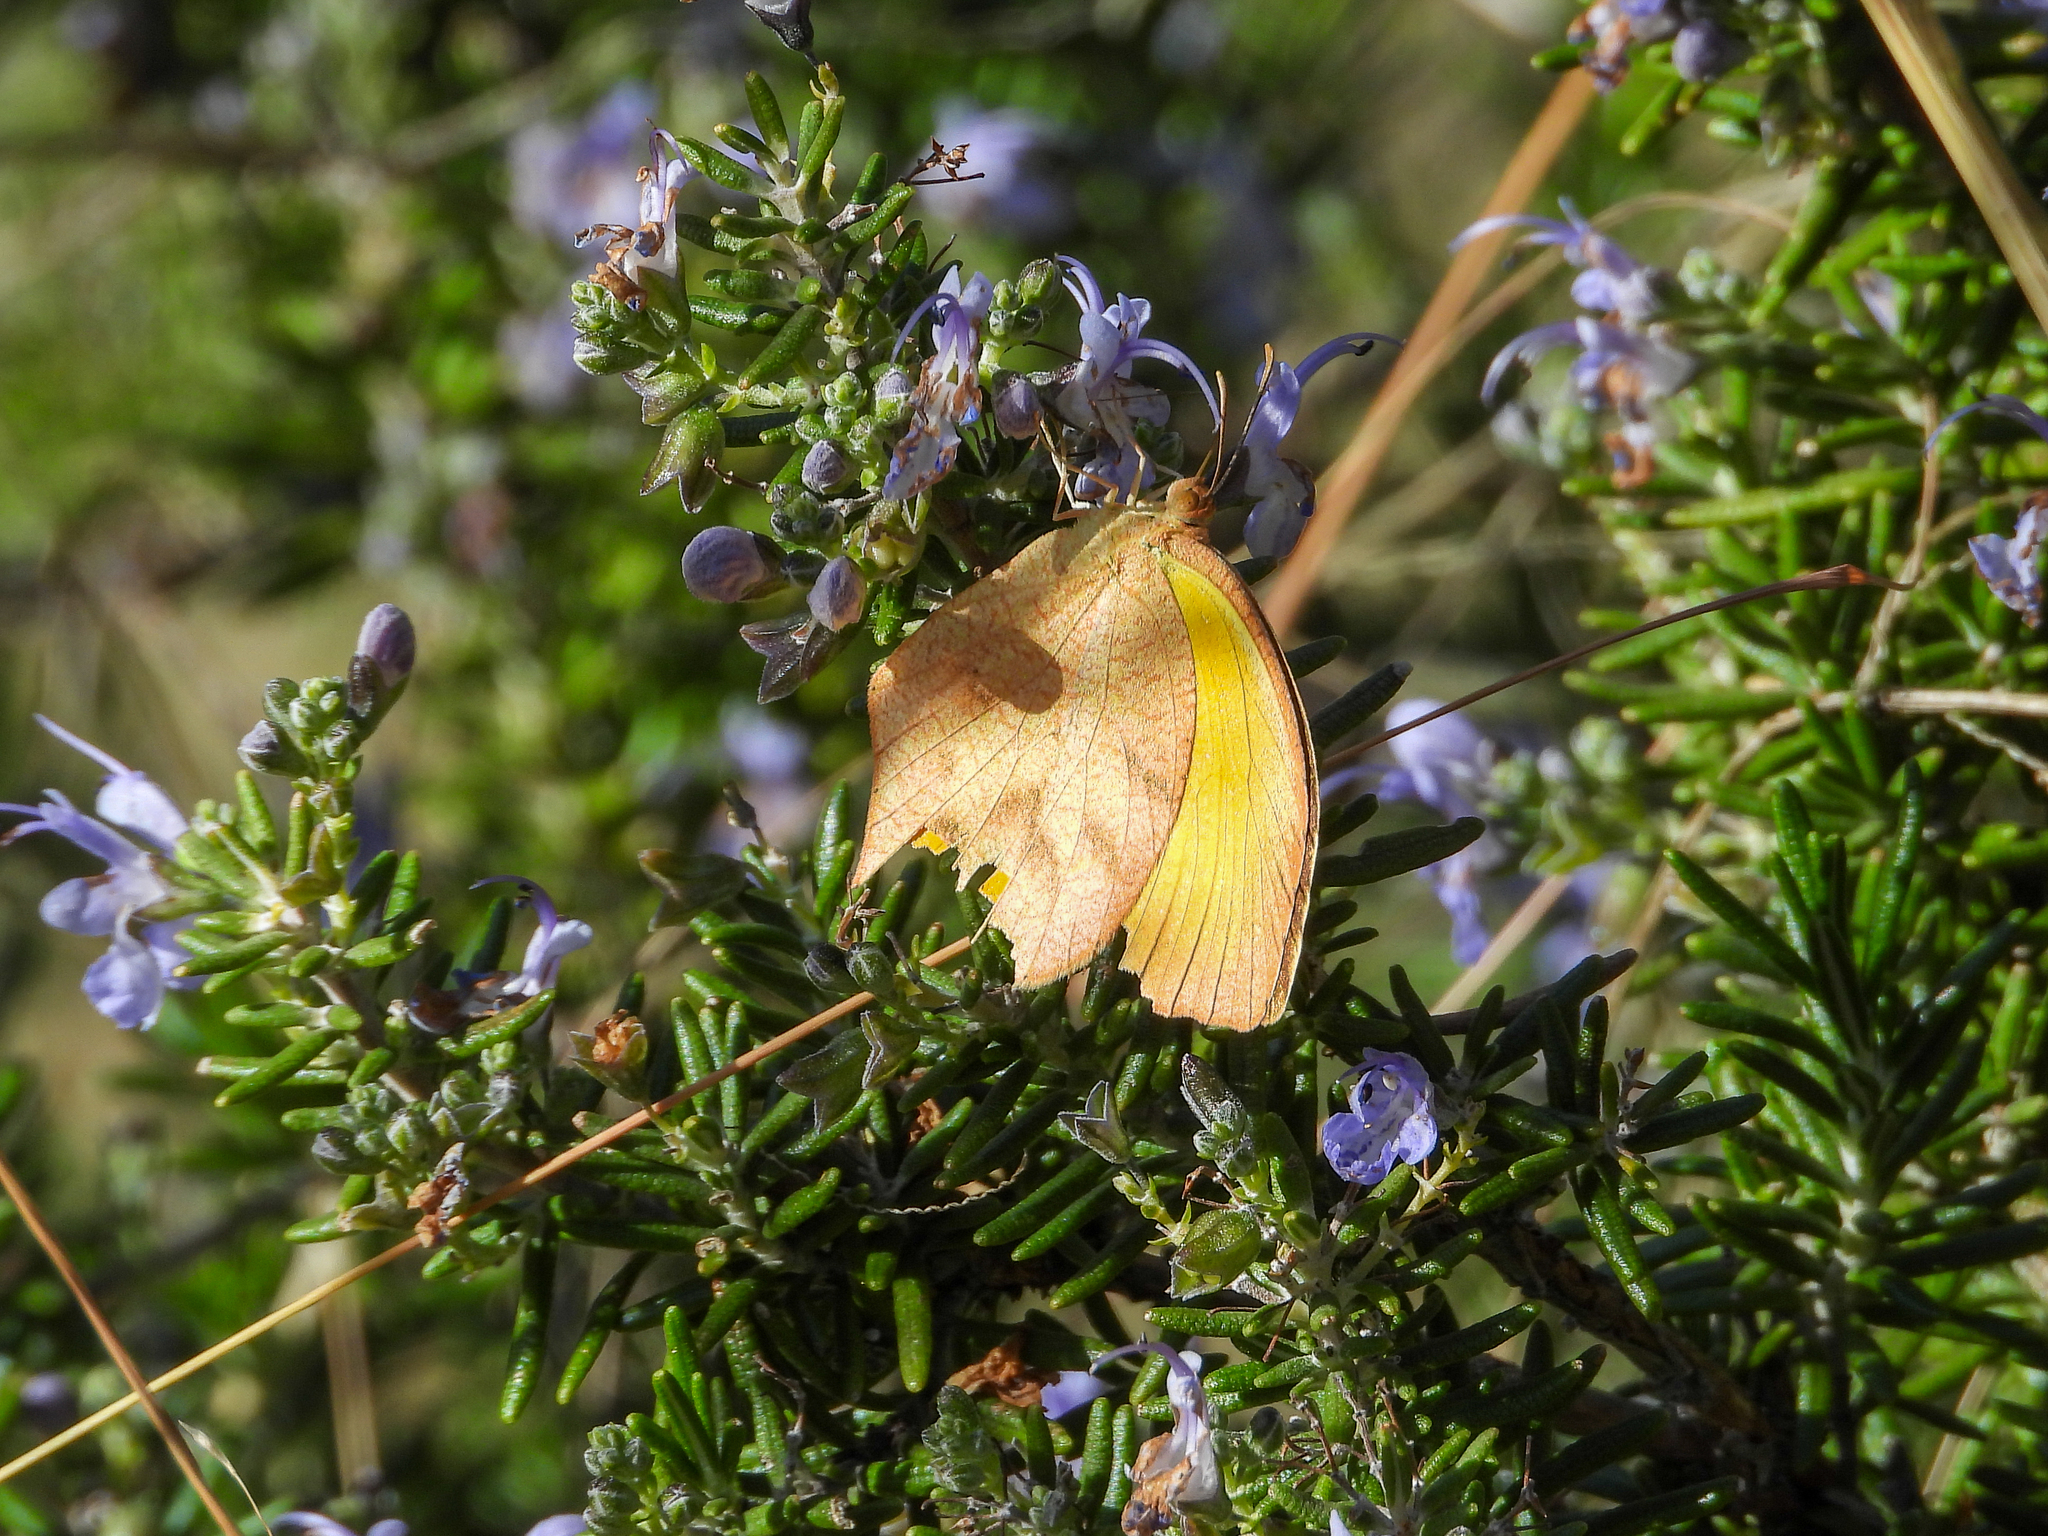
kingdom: Animalia
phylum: Arthropoda
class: Insecta
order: Lepidoptera
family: Pieridae
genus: Pyrisitia
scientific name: Pyrisitia proterpia
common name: Tailed orange
